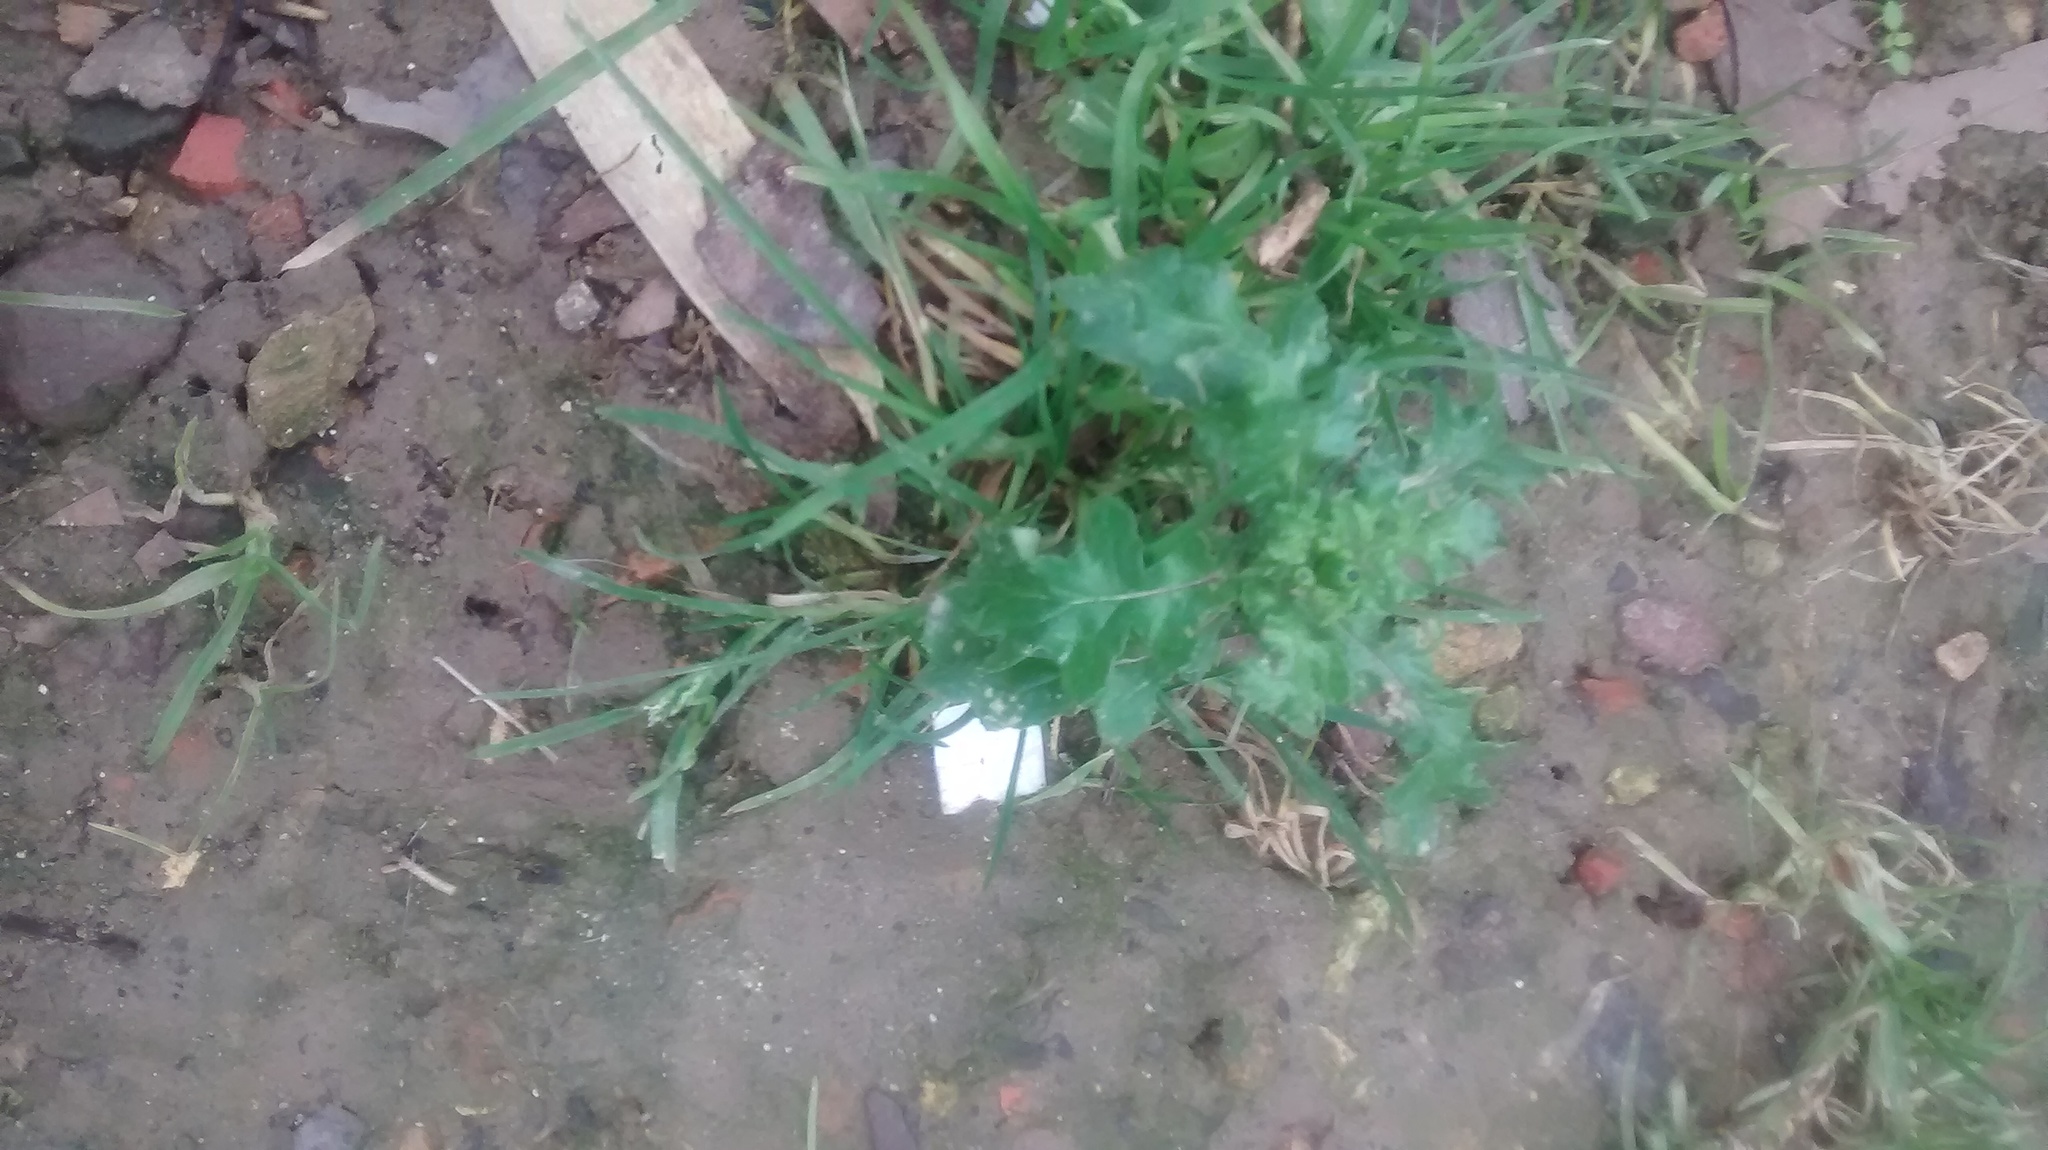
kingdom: Plantae
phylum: Tracheophyta
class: Magnoliopsida
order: Asterales
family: Asteraceae
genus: Senecio
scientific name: Senecio vulgaris
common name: Old-man-in-the-spring
